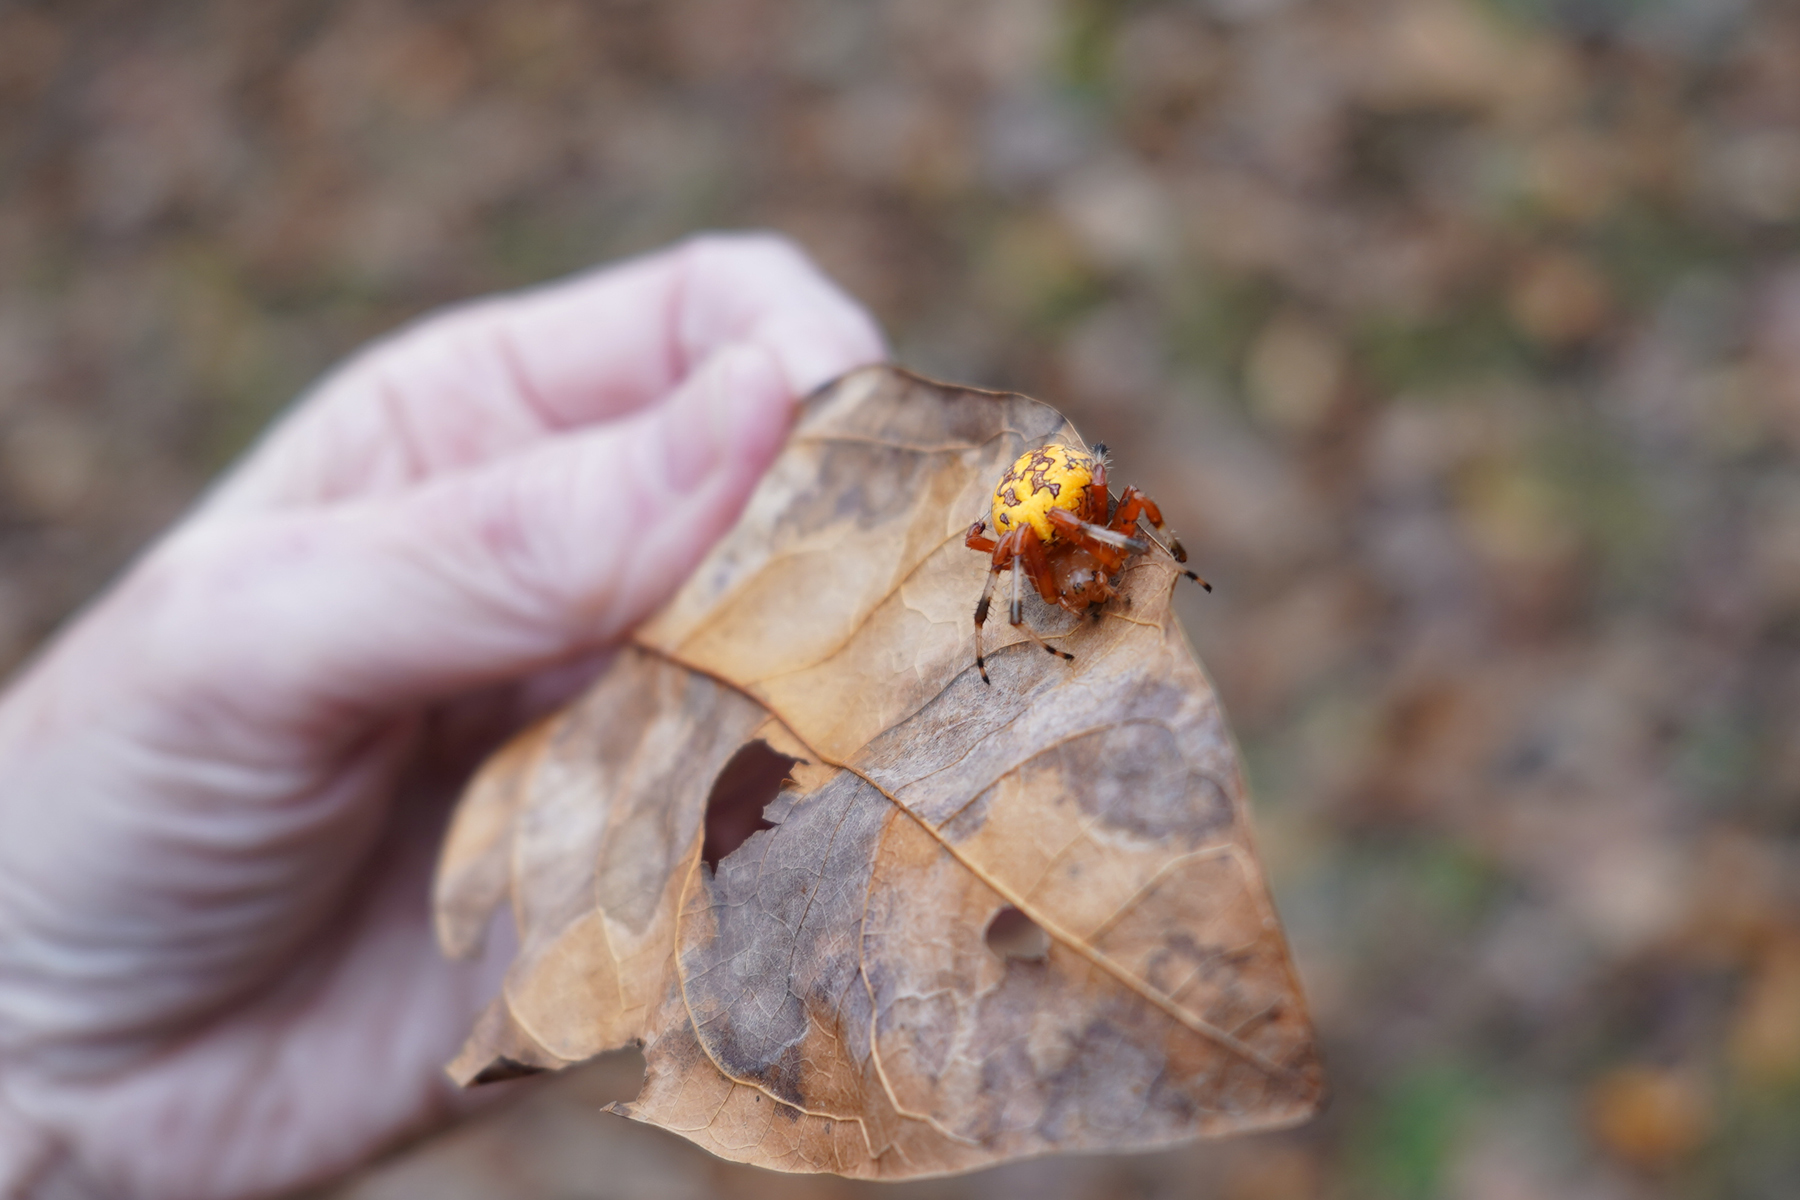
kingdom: Animalia
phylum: Arthropoda
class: Arachnida
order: Araneae
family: Araneidae
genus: Araneus
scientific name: Araneus marmoreus
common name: Marbled orbweaver
